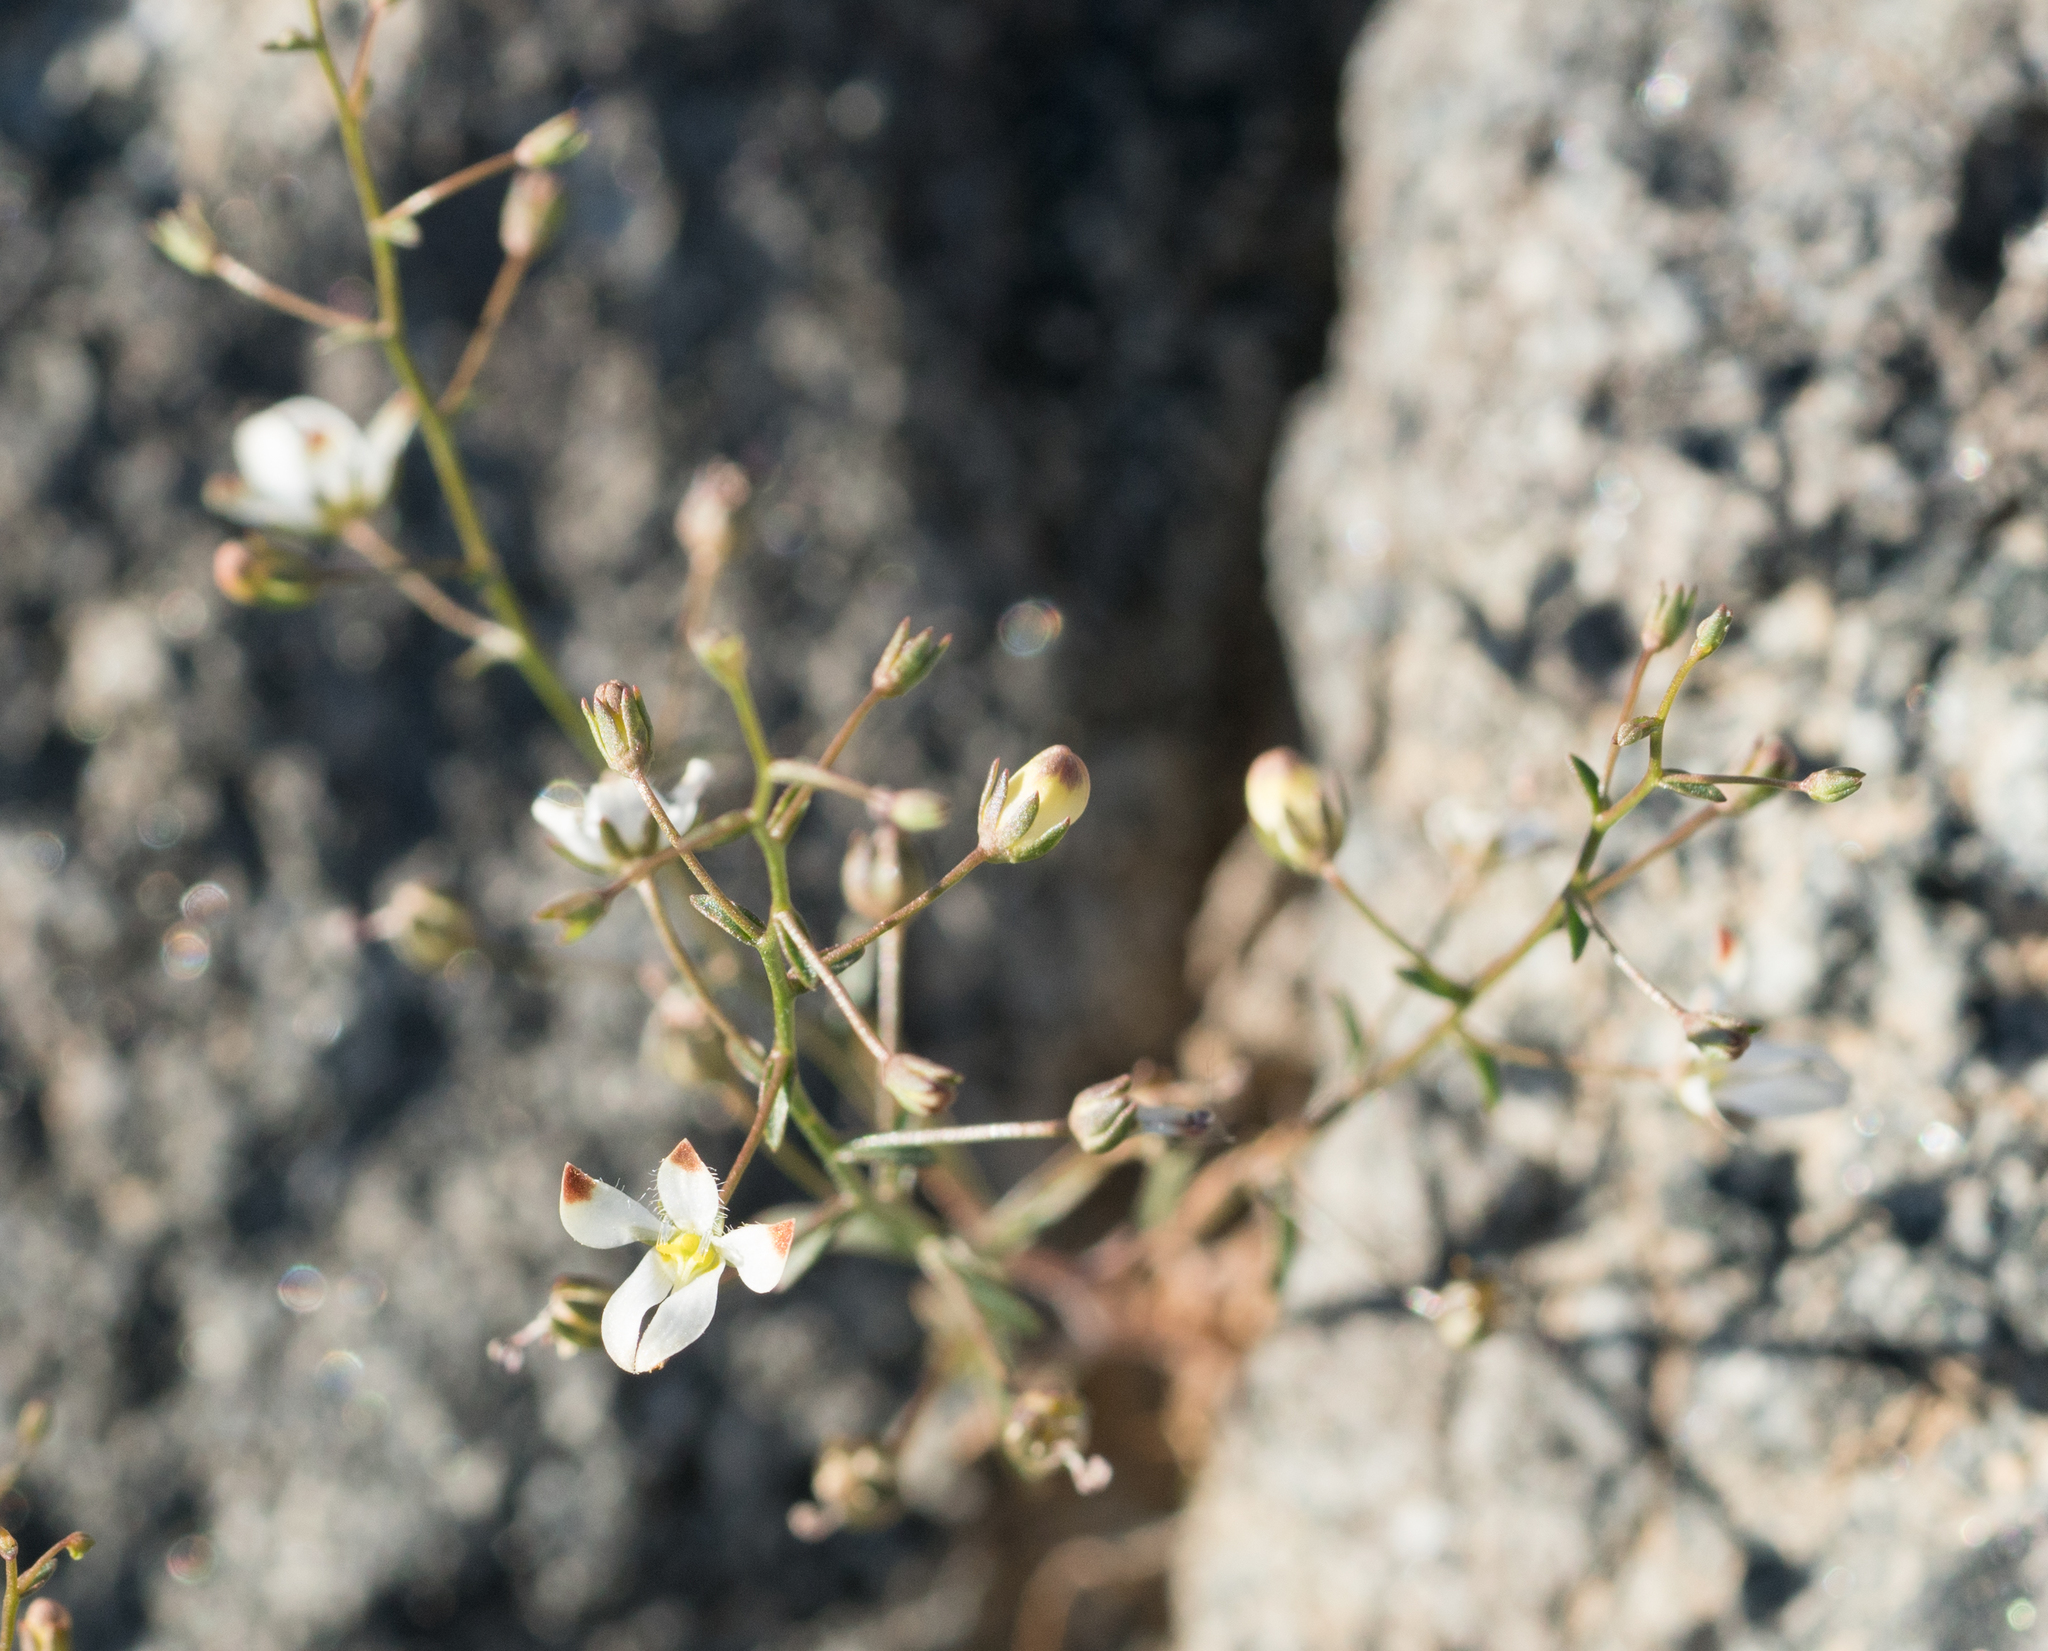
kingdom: Plantae
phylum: Tracheophyta
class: Magnoliopsida
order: Asterales
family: Campanulaceae
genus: Nemacladus
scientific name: Nemacladus orientalis
